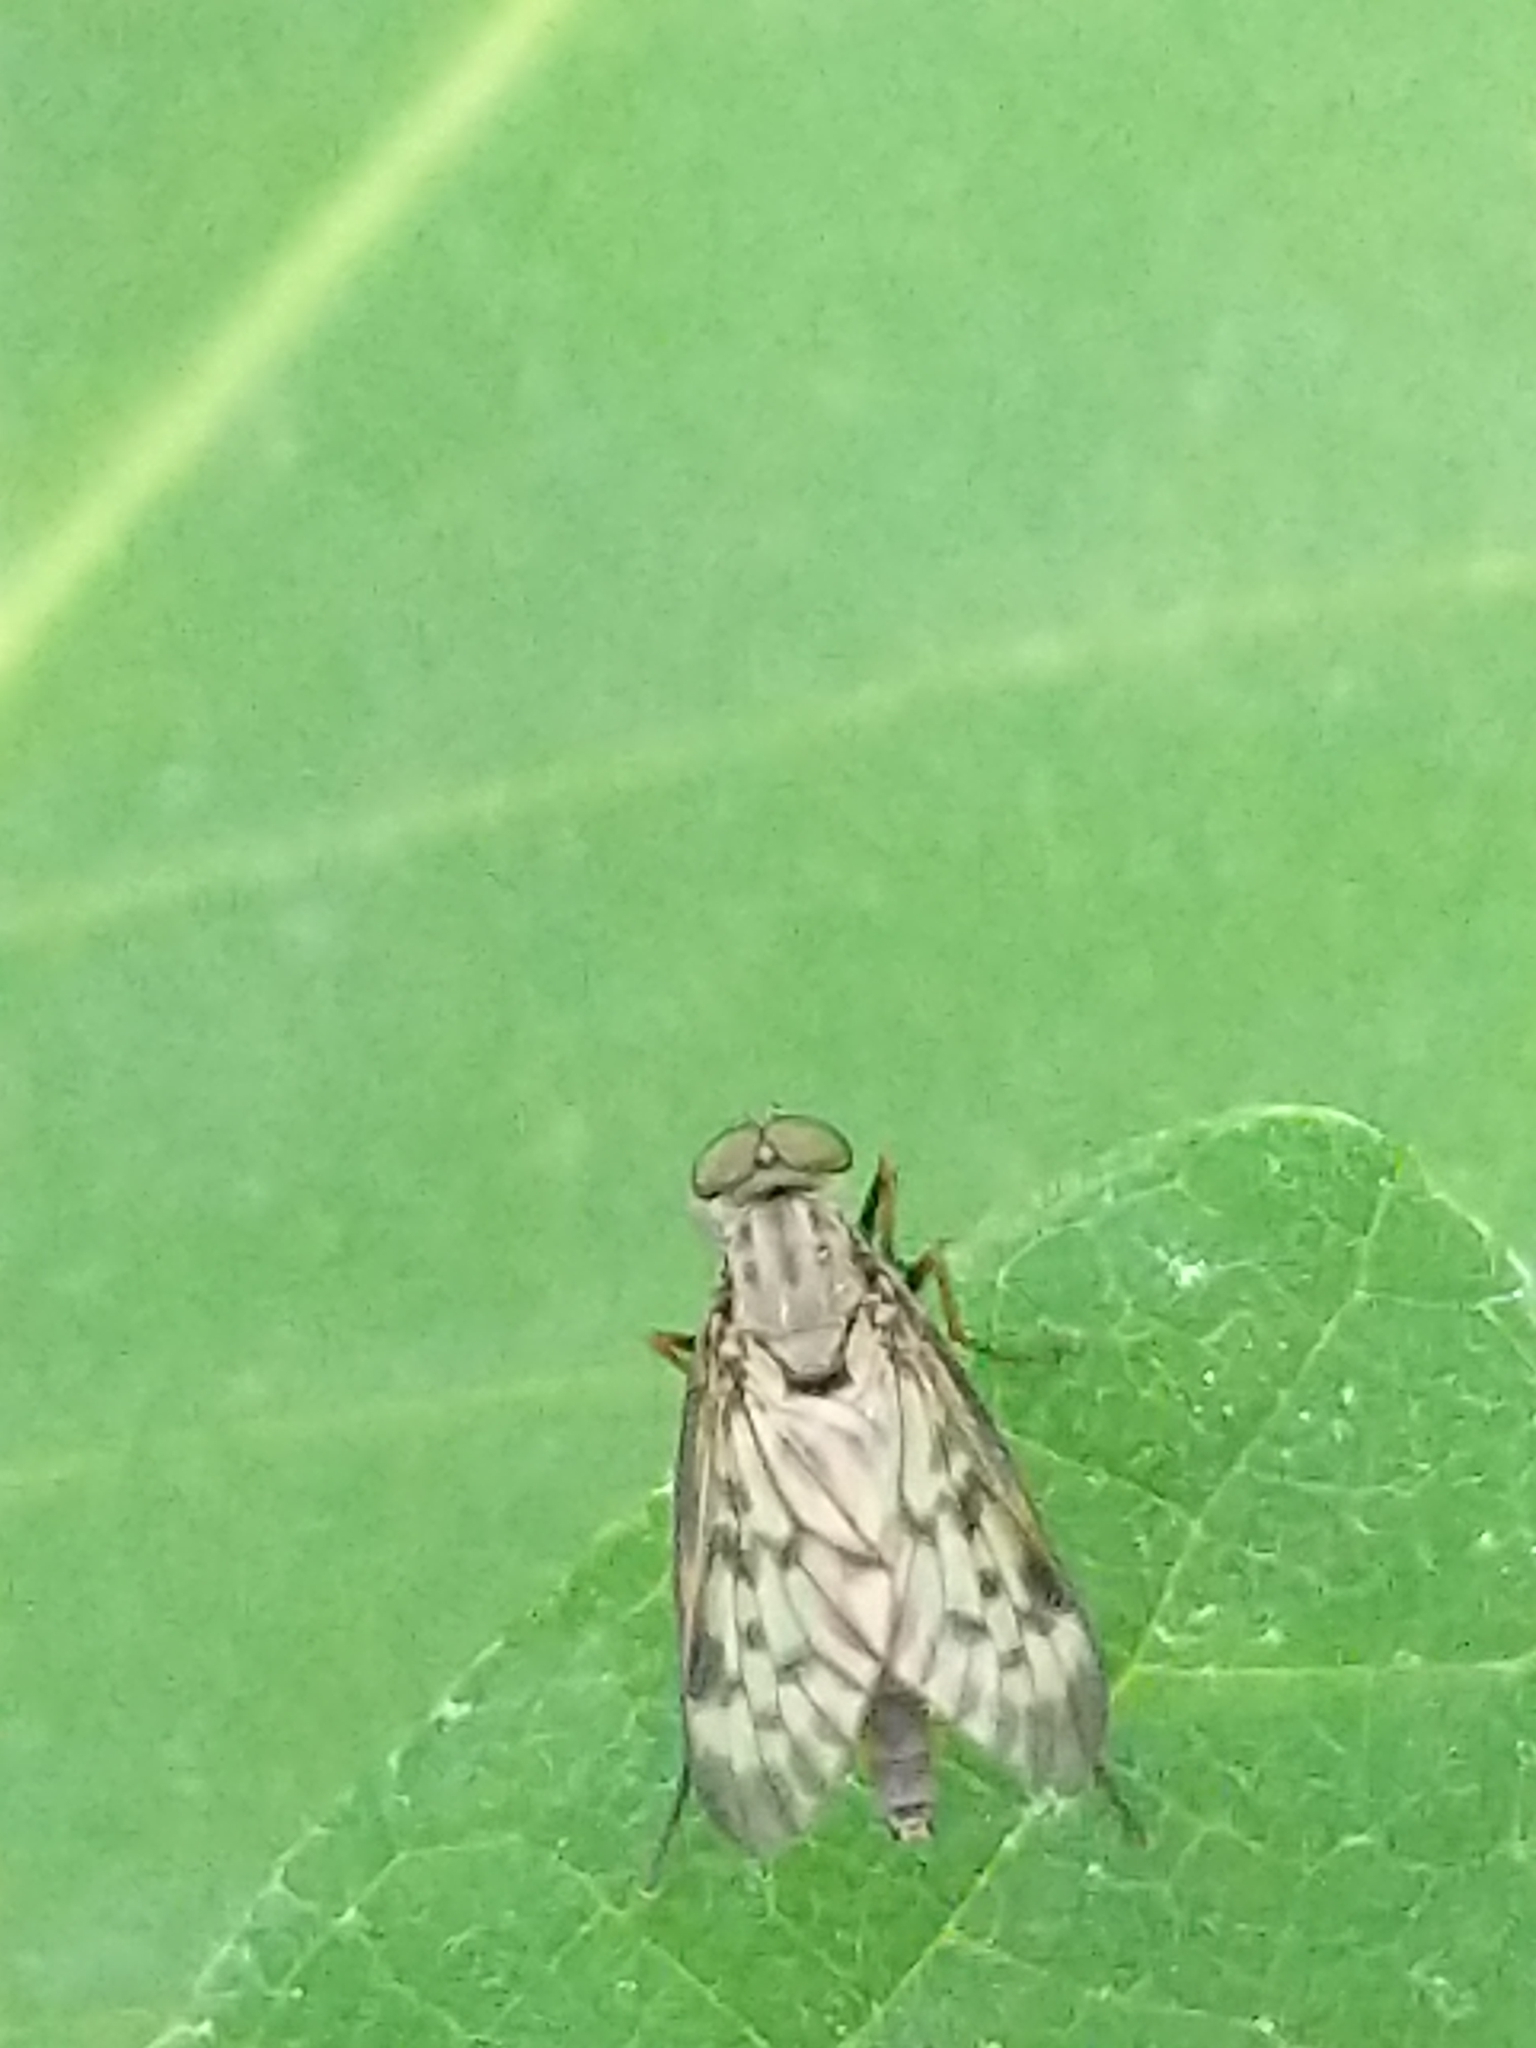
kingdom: Animalia
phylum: Arthropoda
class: Insecta
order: Diptera
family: Rhagionidae
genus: Rhagio
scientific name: Rhagio punctipennis
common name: Lesser variegated snipe fly
